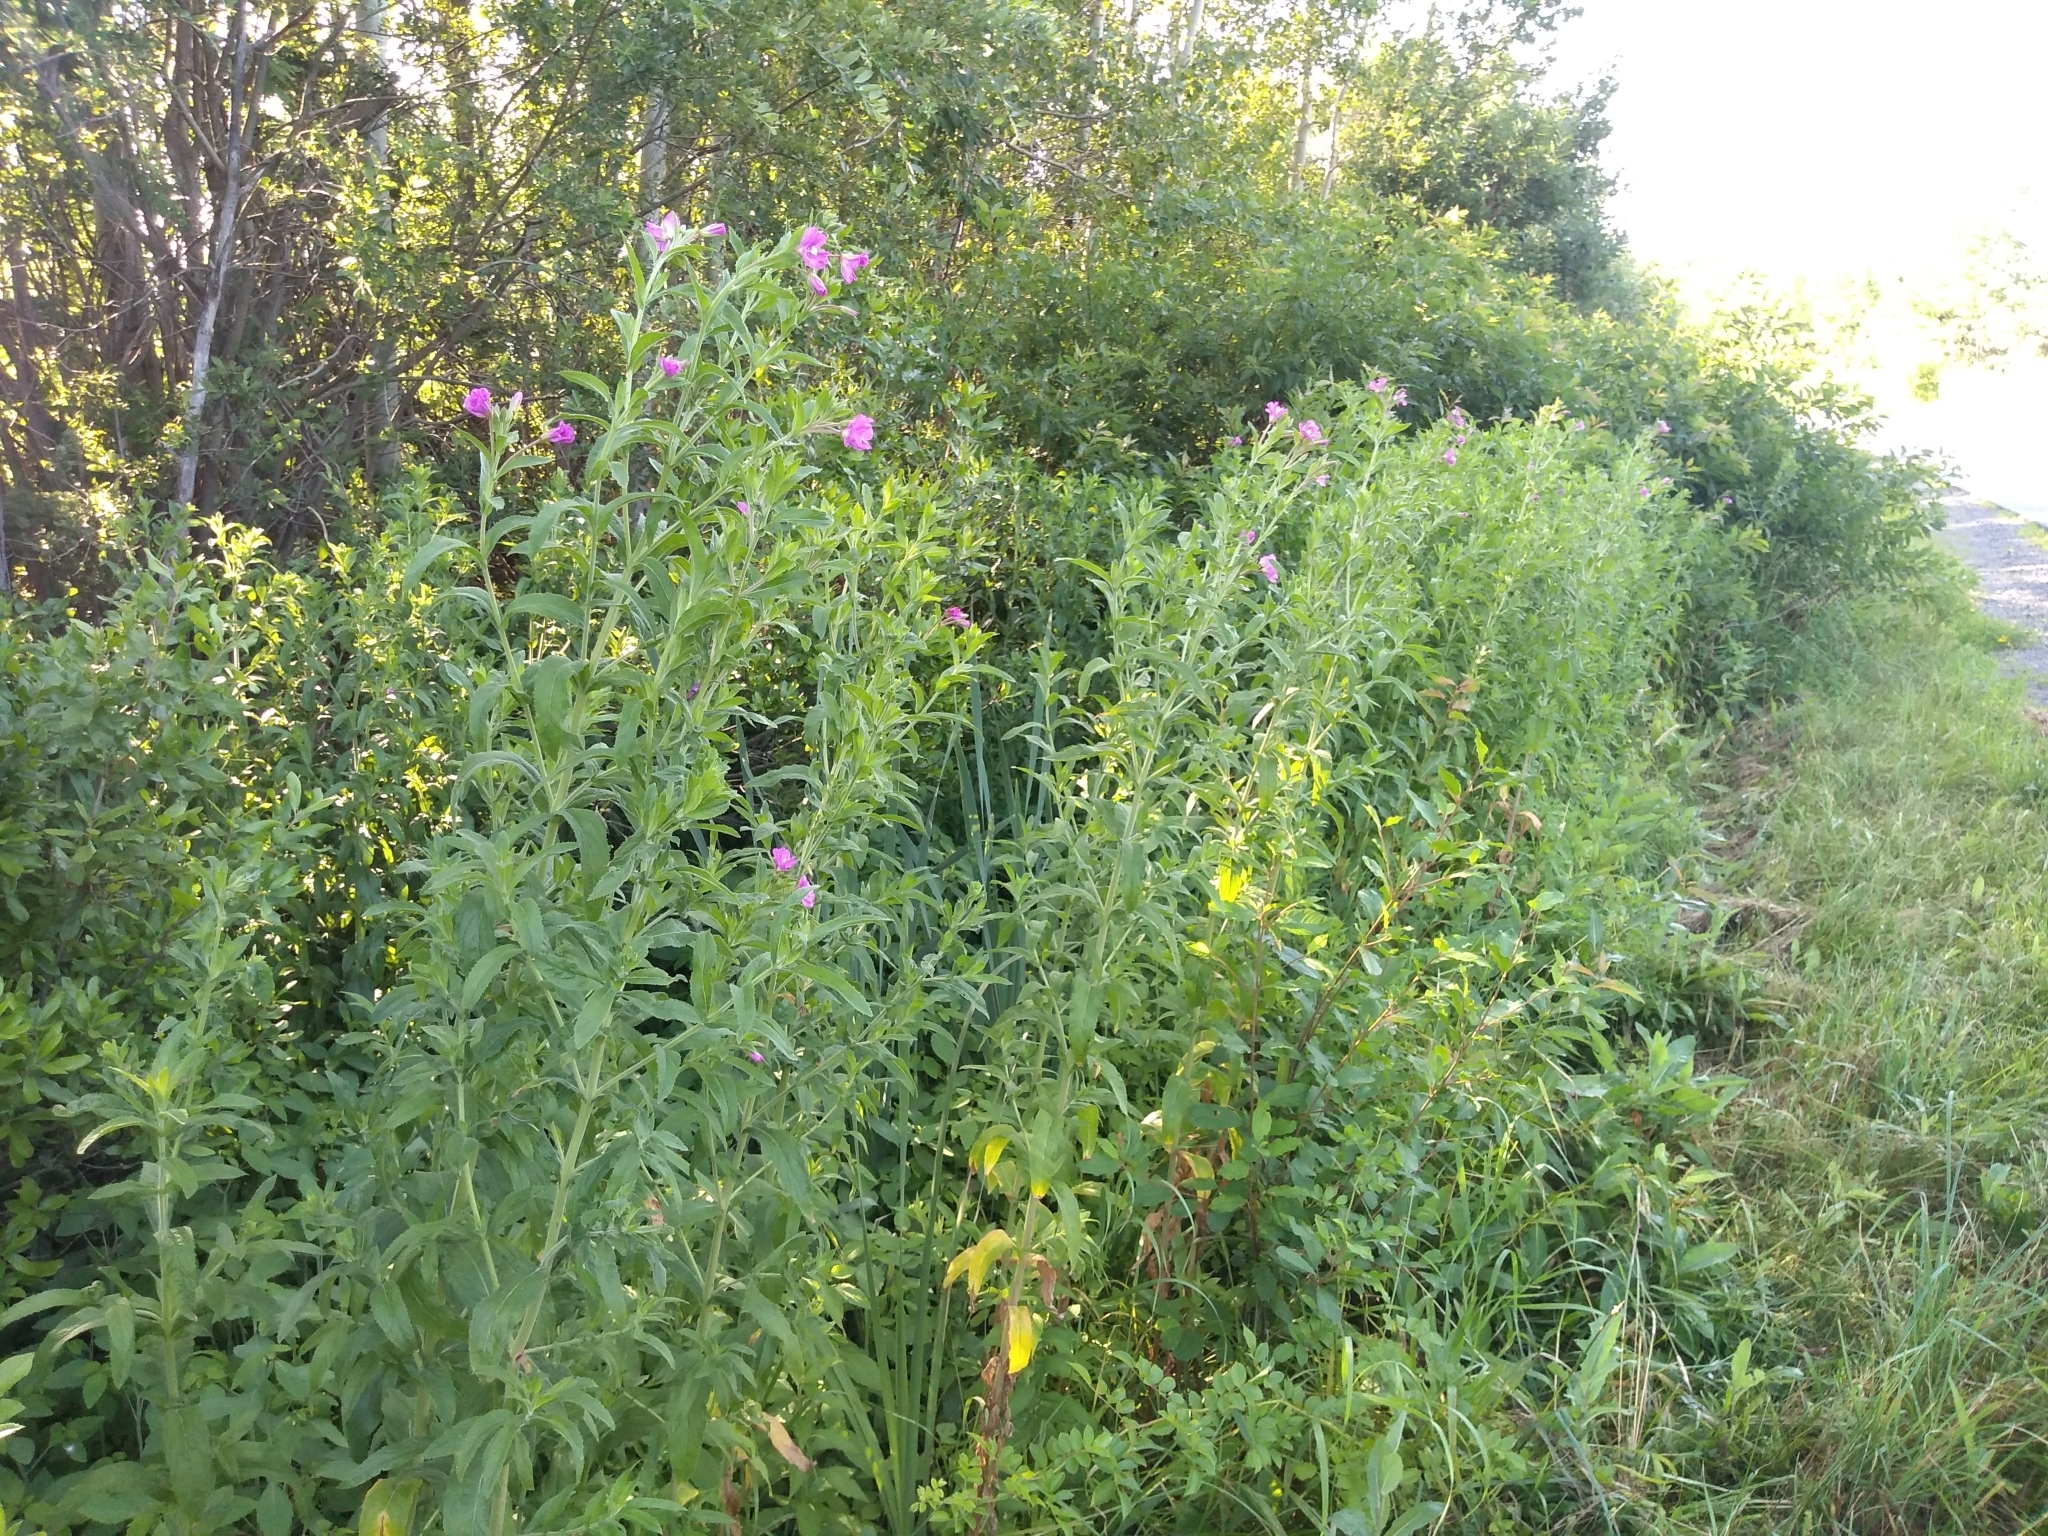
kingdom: Plantae
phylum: Tracheophyta
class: Magnoliopsida
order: Myrtales
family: Onagraceae
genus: Epilobium
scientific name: Epilobium hirsutum
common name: Great willowherb
